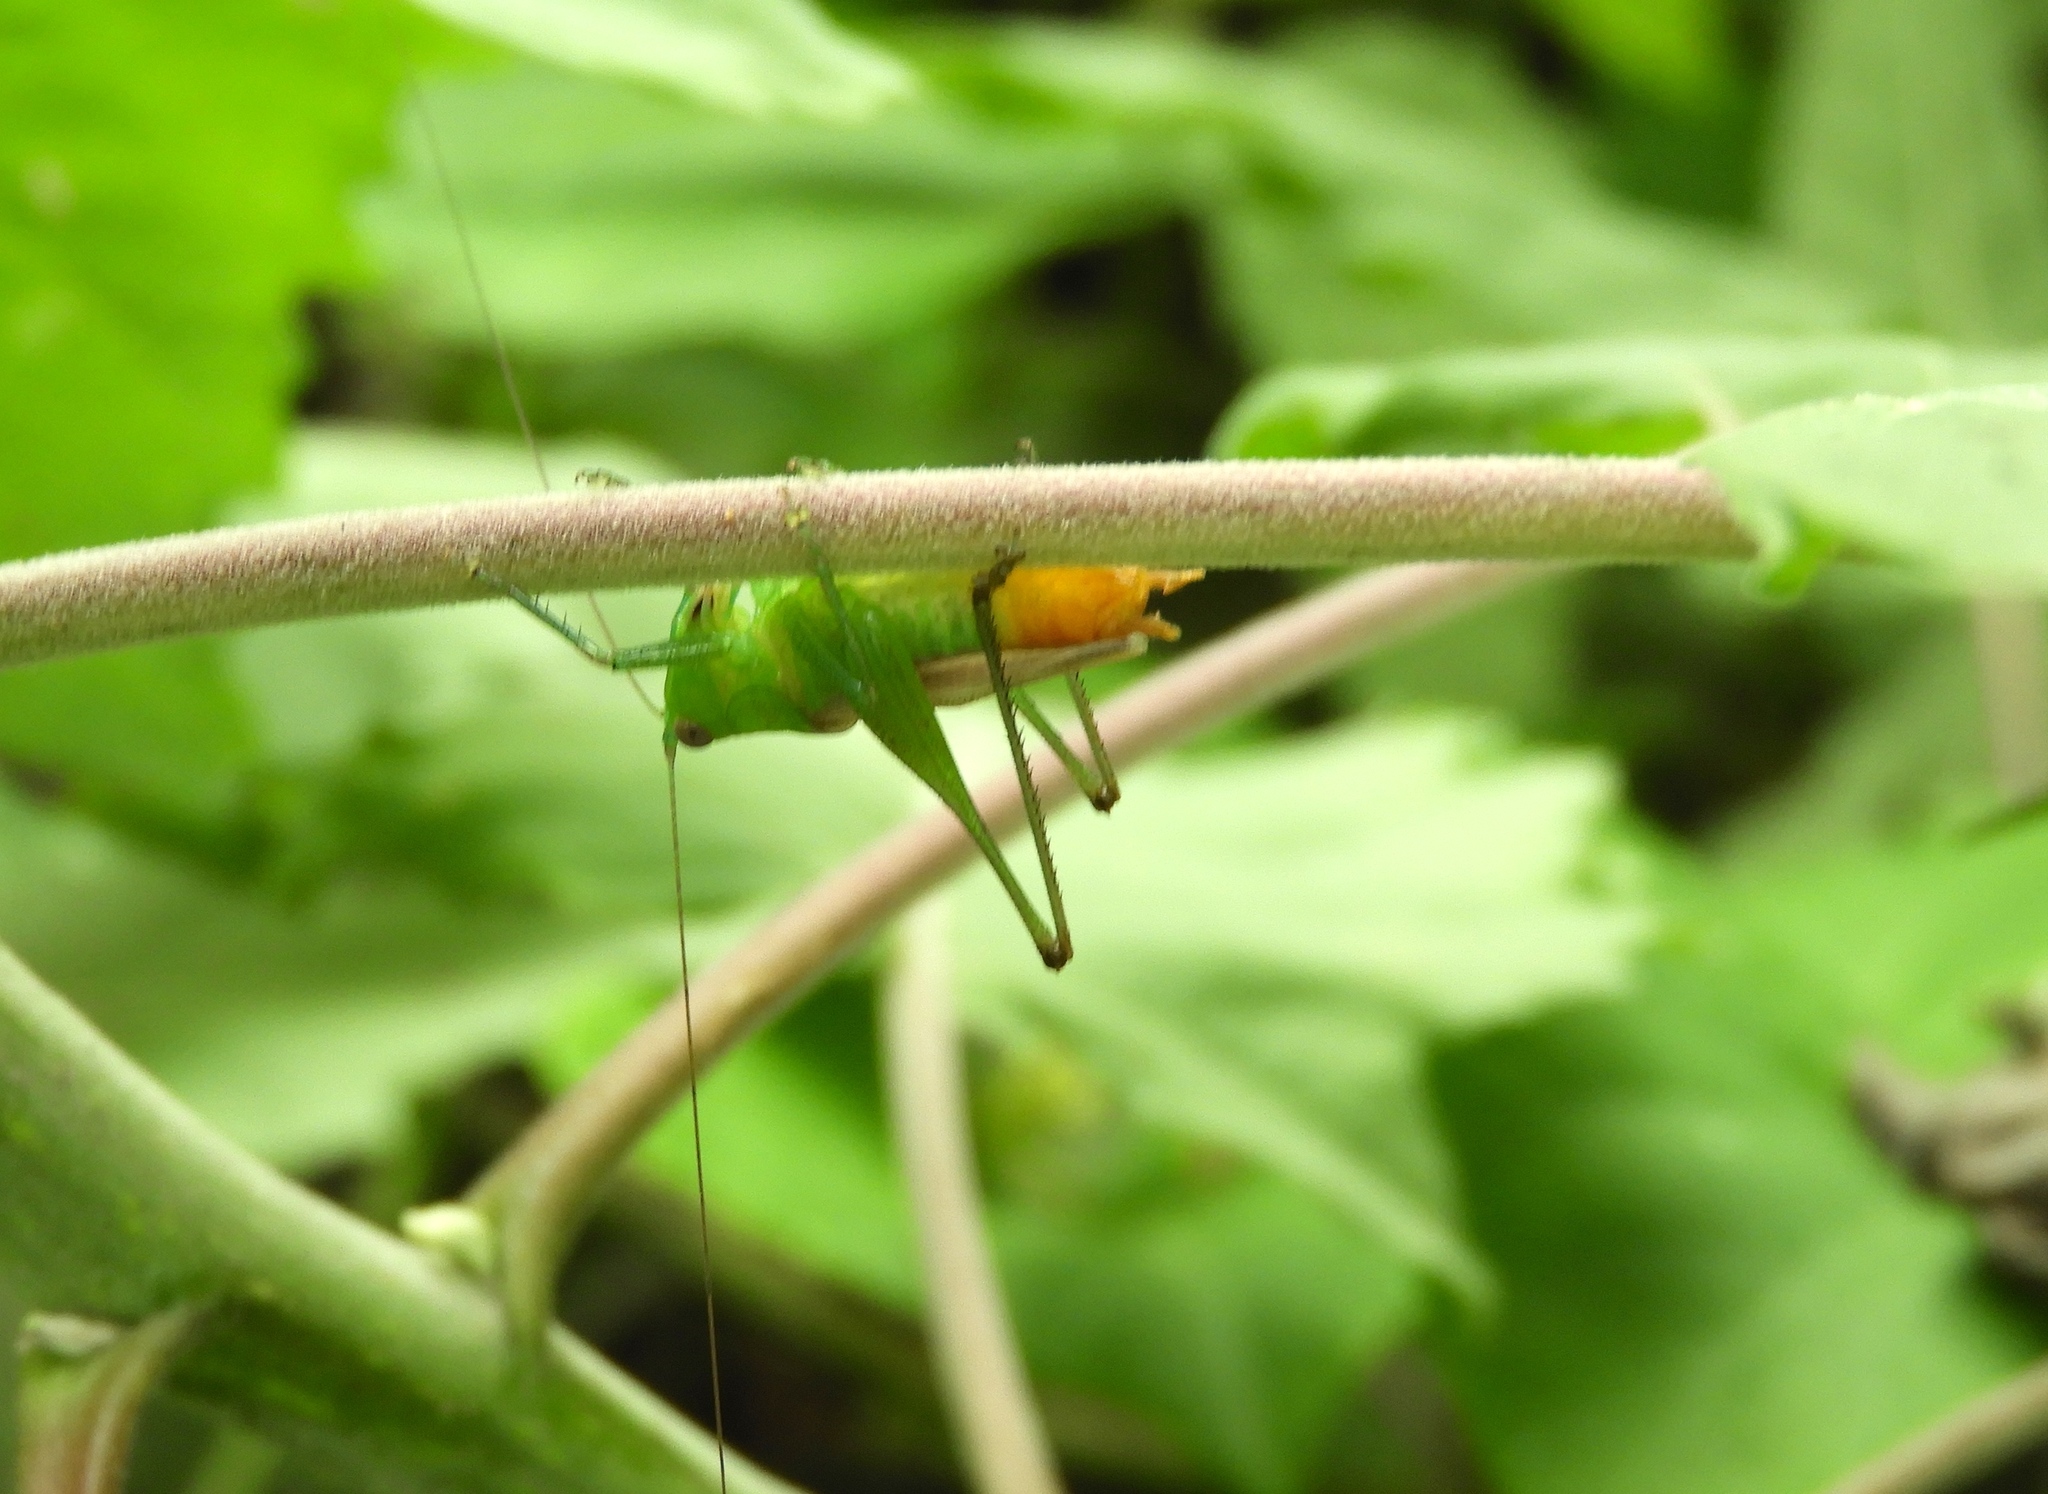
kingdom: Animalia
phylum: Arthropoda
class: Insecta
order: Orthoptera
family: Tettigoniidae
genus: Conocephalus
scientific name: Conocephalus
